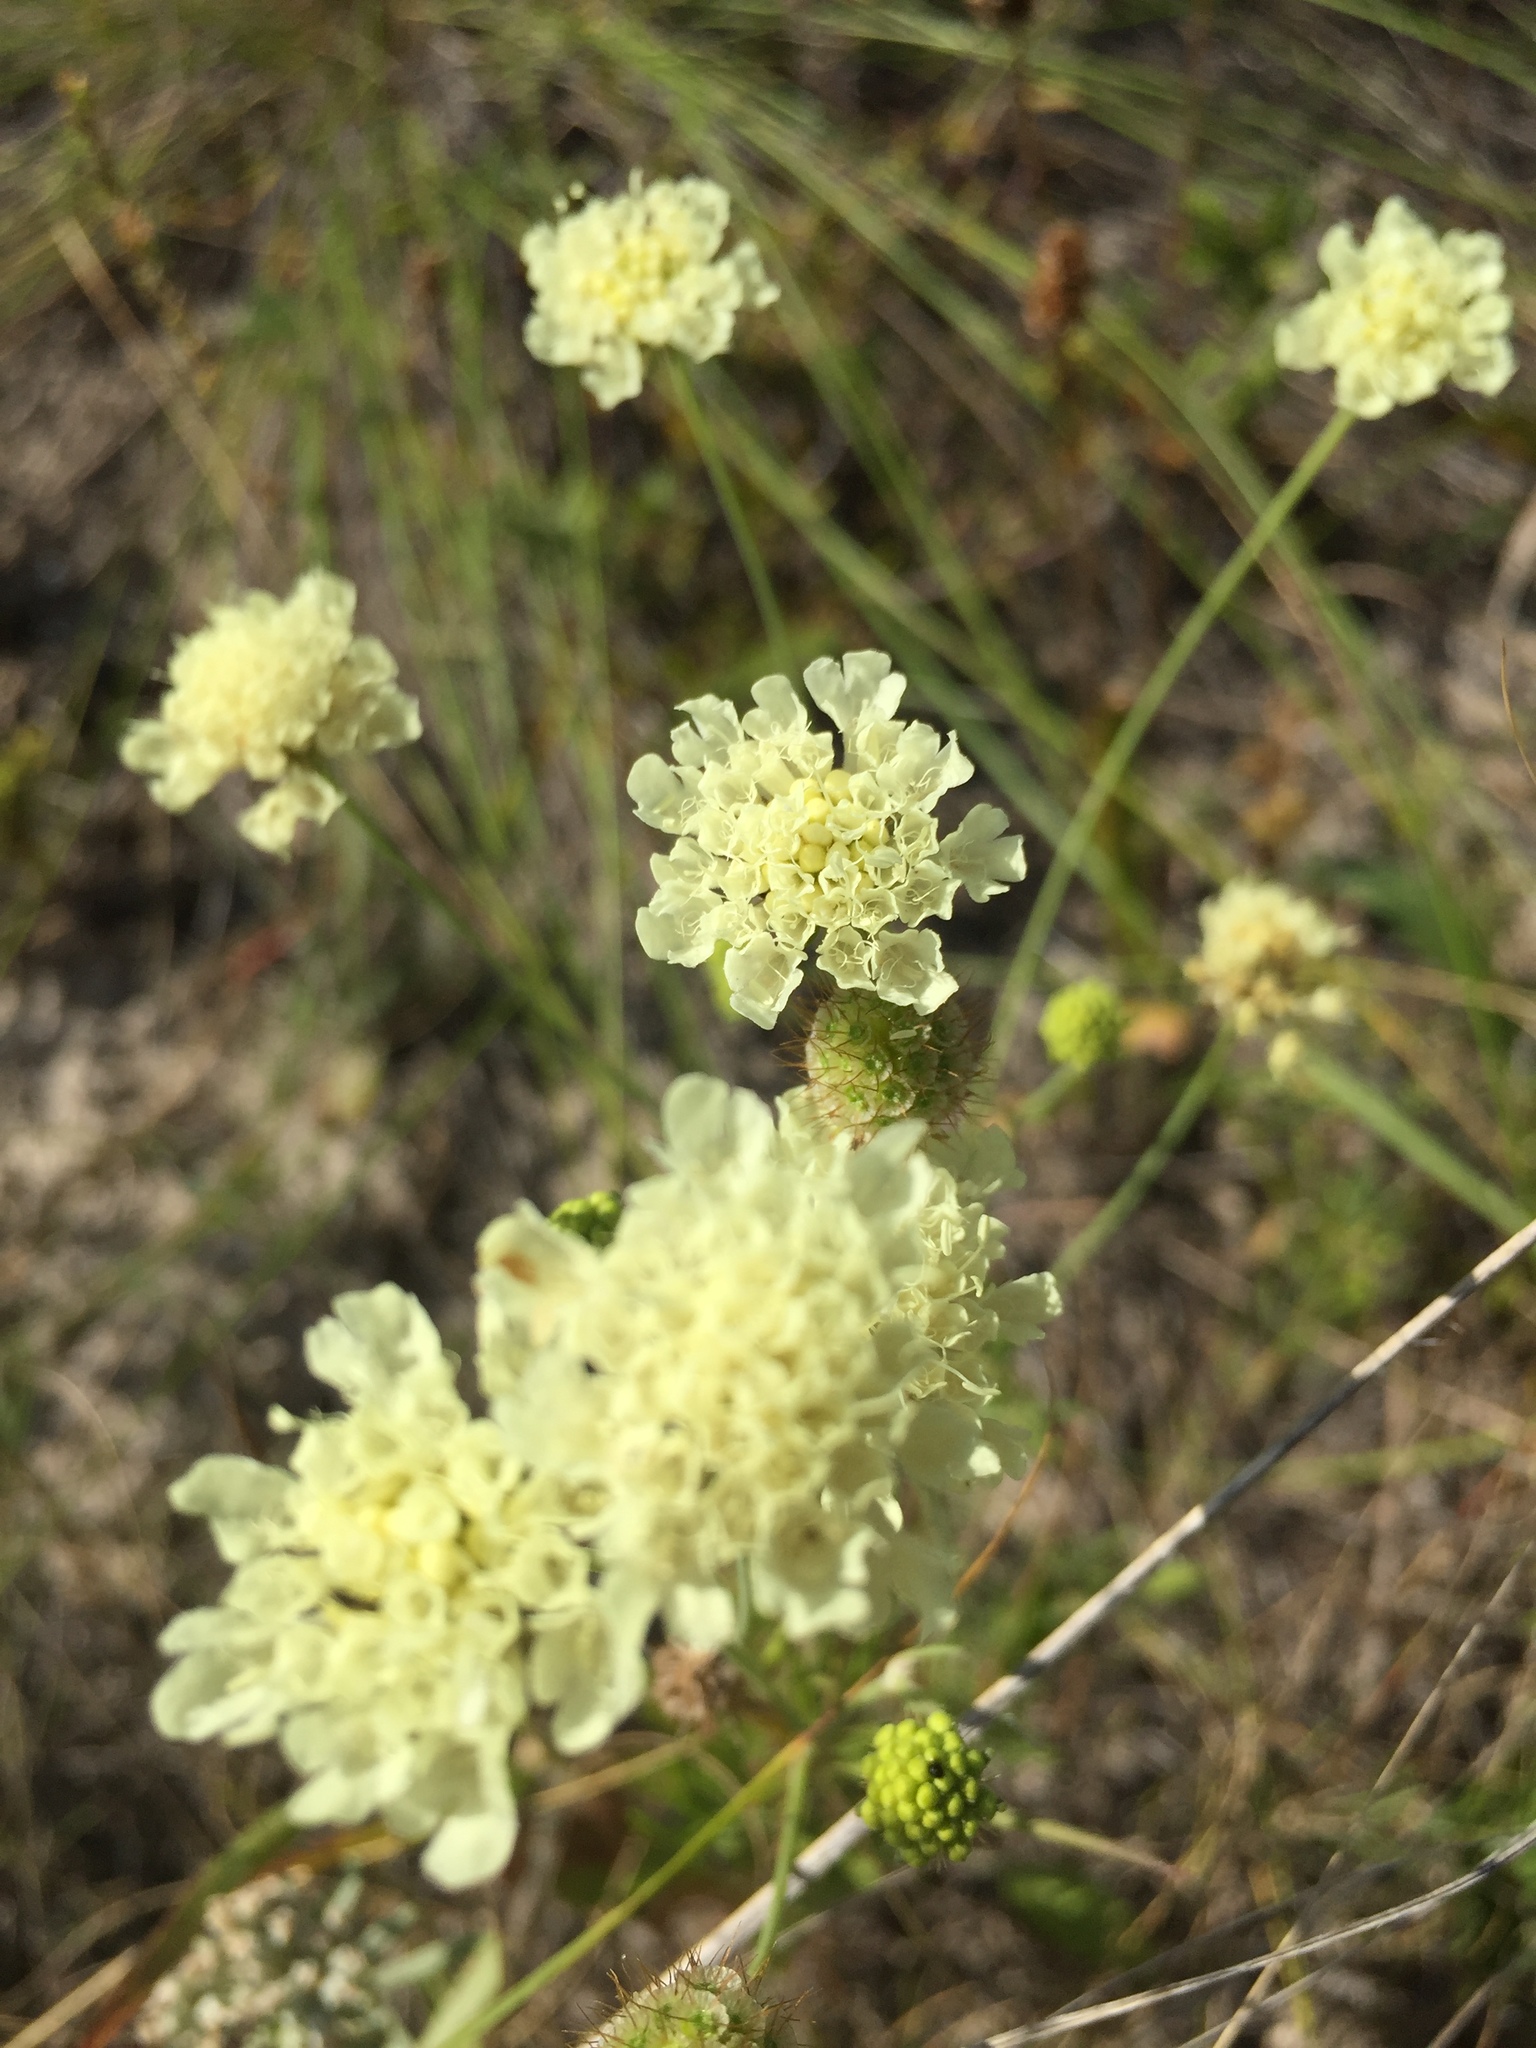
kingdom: Plantae
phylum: Tracheophyta
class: Magnoliopsida
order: Dipsacales
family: Caprifoliaceae
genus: Scabiosa
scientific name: Scabiosa ochroleuca
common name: Cream pincushions
